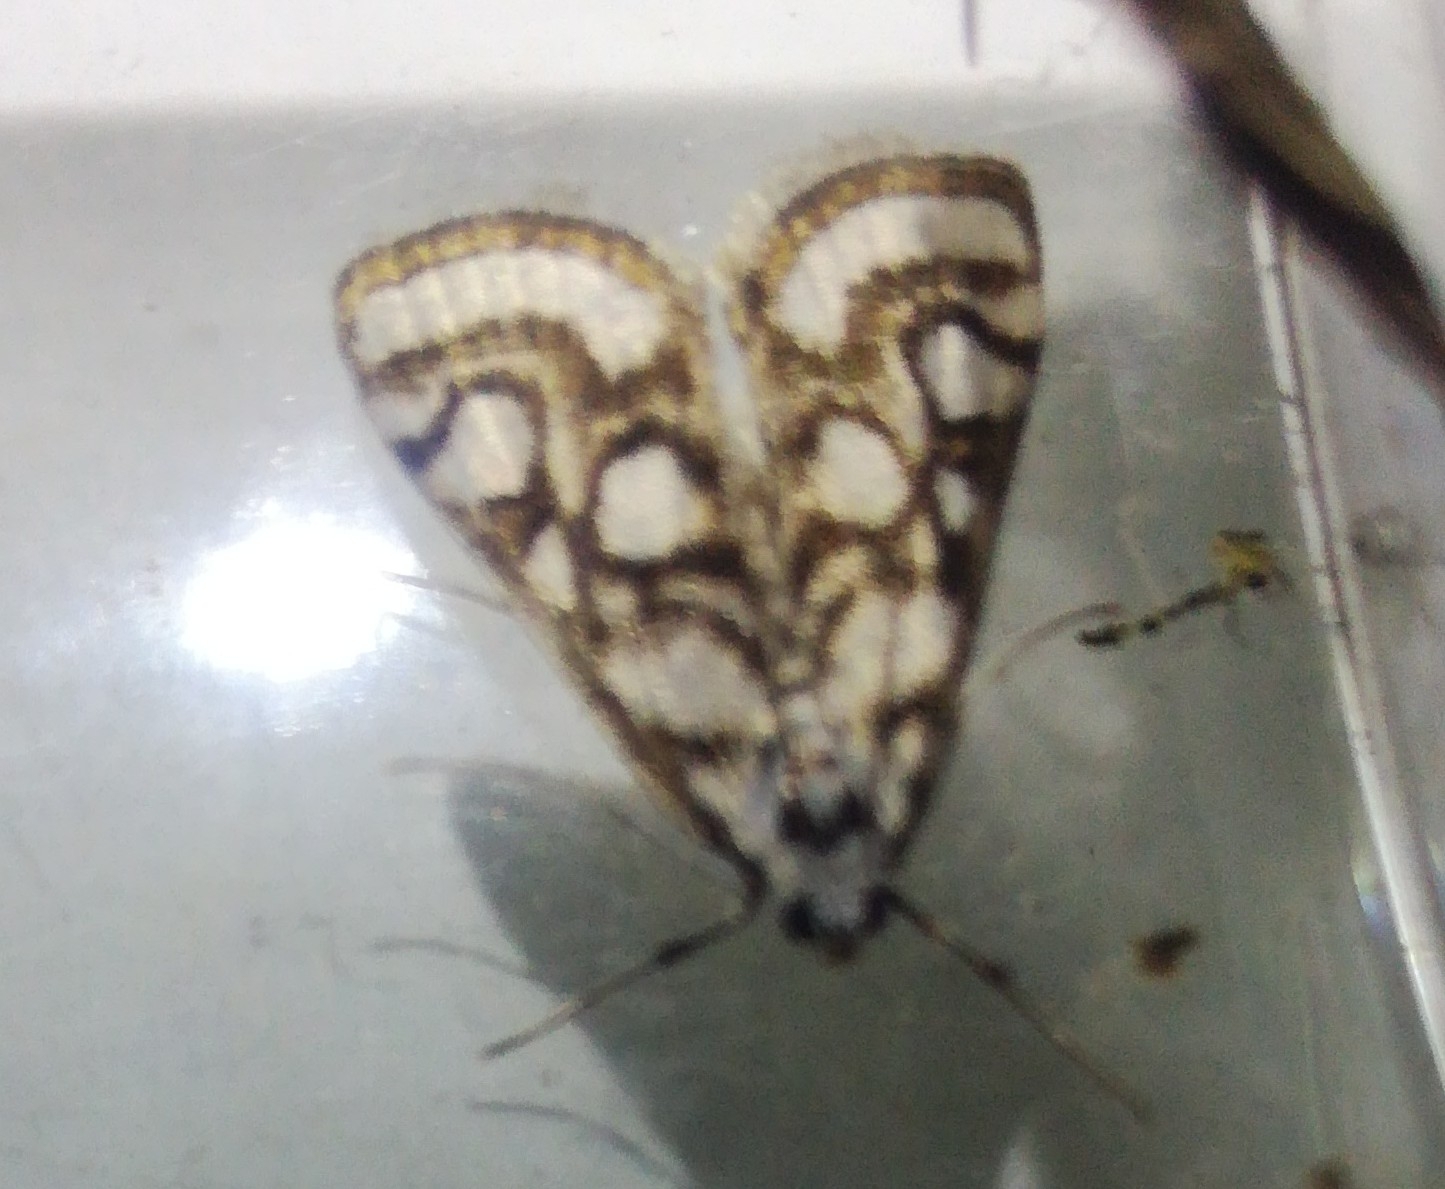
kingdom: Animalia
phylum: Arthropoda
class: Insecta
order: Lepidoptera
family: Crambidae
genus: Nymphula
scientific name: Nymphula nitidulata
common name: Beautiful china mark
